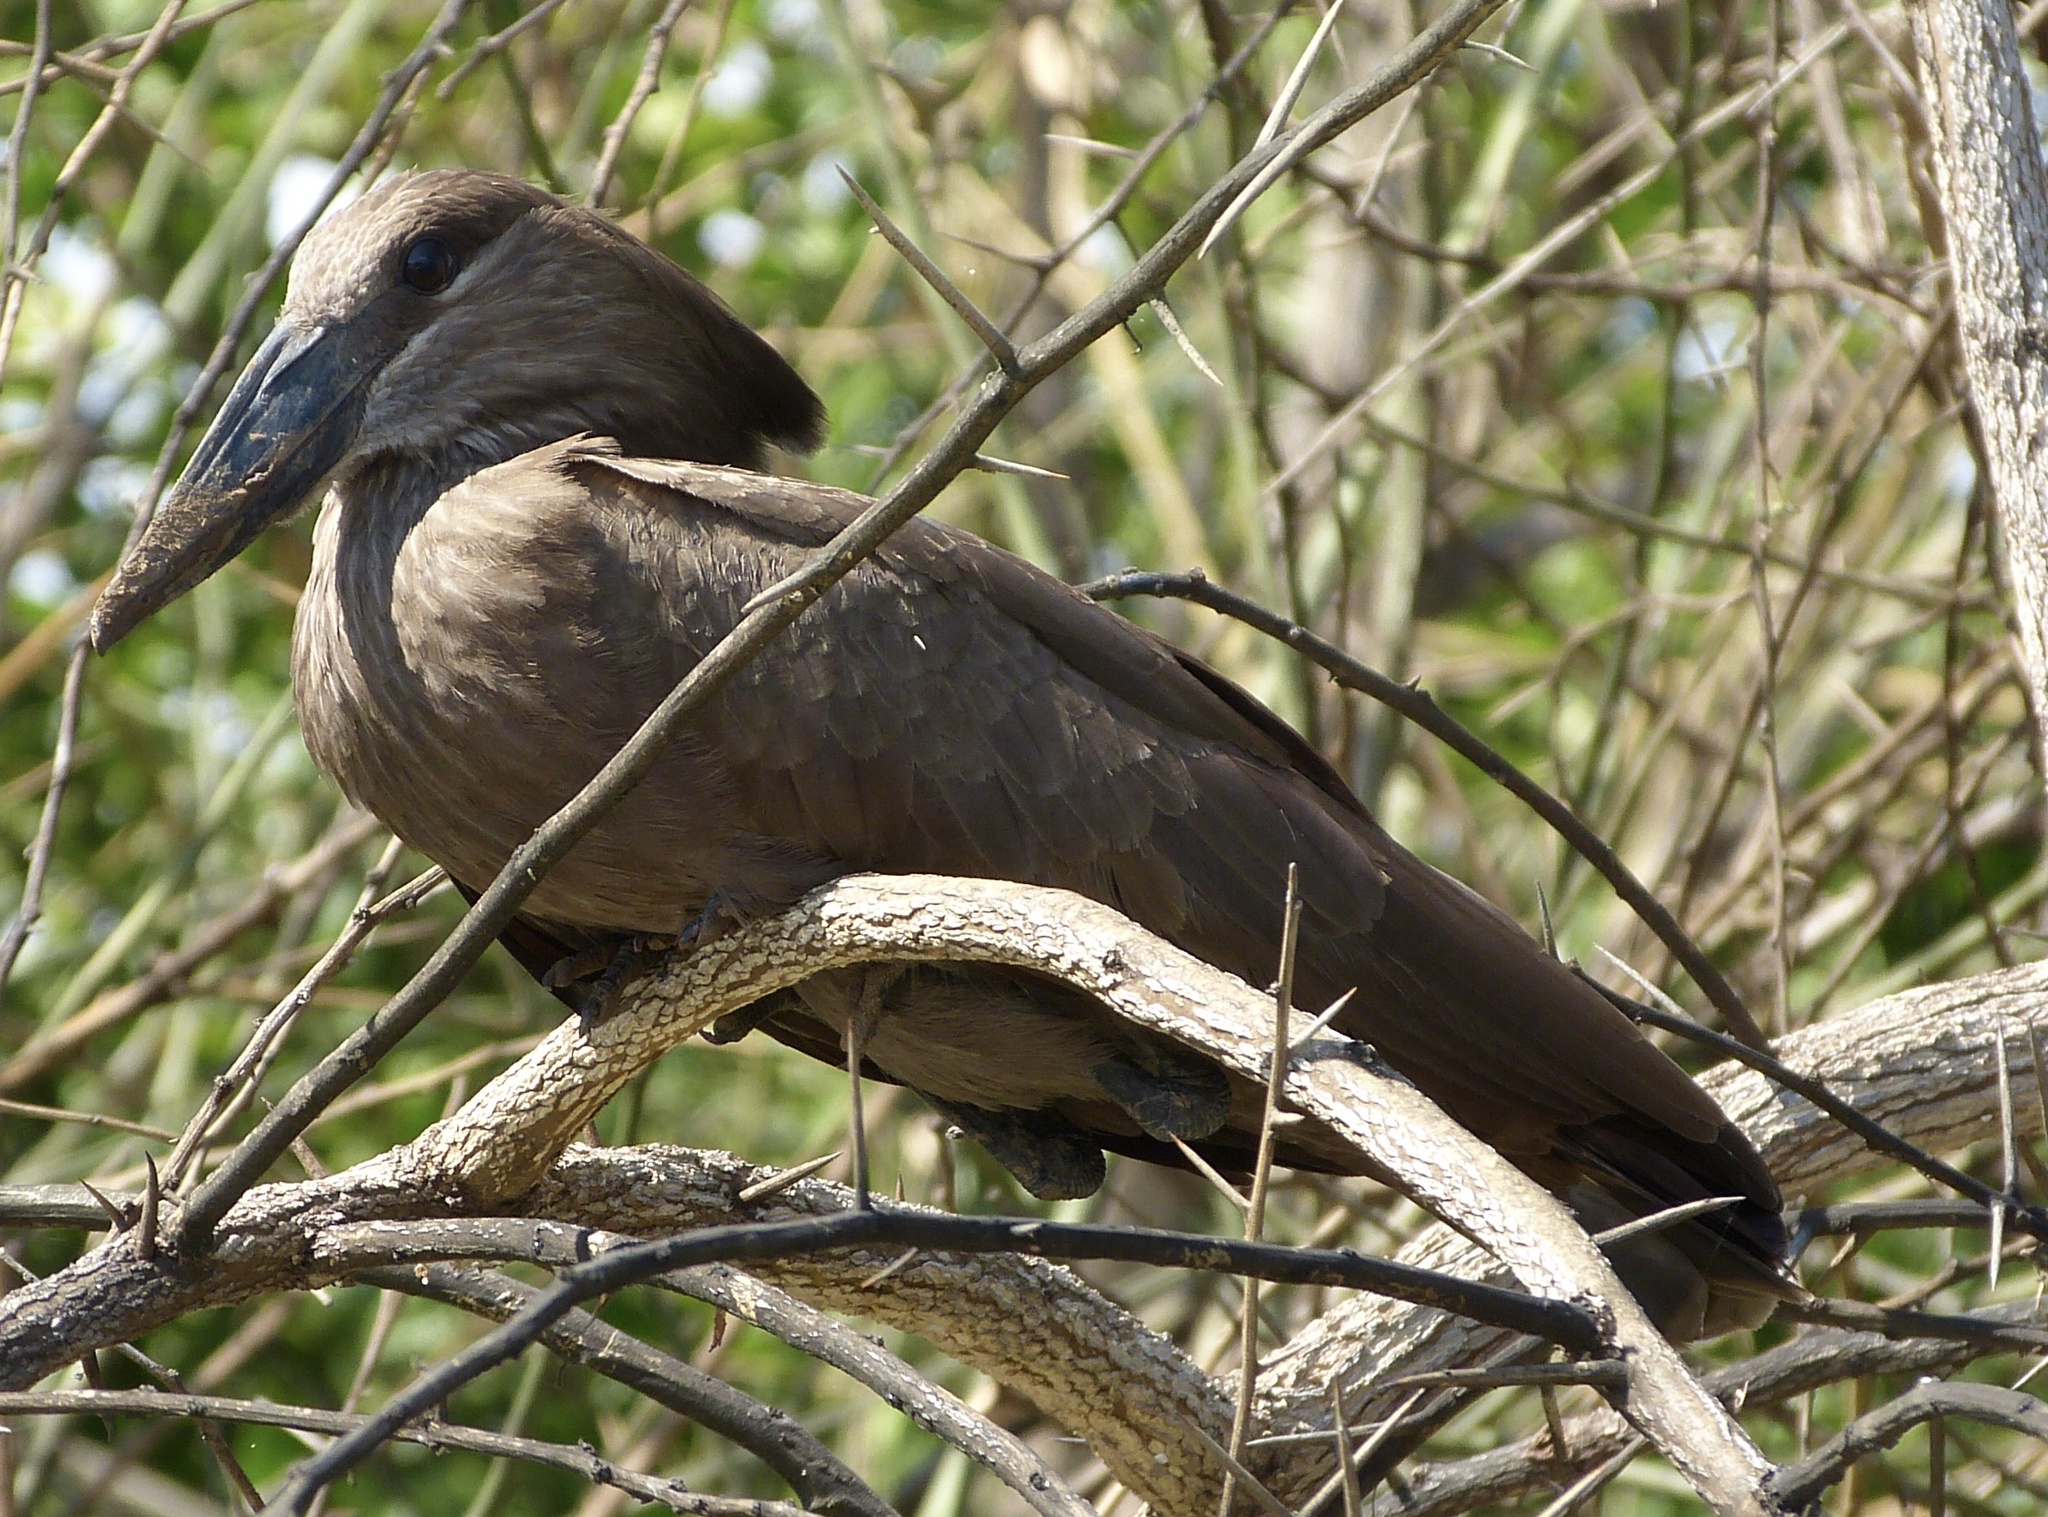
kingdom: Animalia
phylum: Chordata
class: Aves
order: Pelecaniformes
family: Scopidae
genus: Scopus
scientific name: Scopus umbretta
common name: Hamerkop
